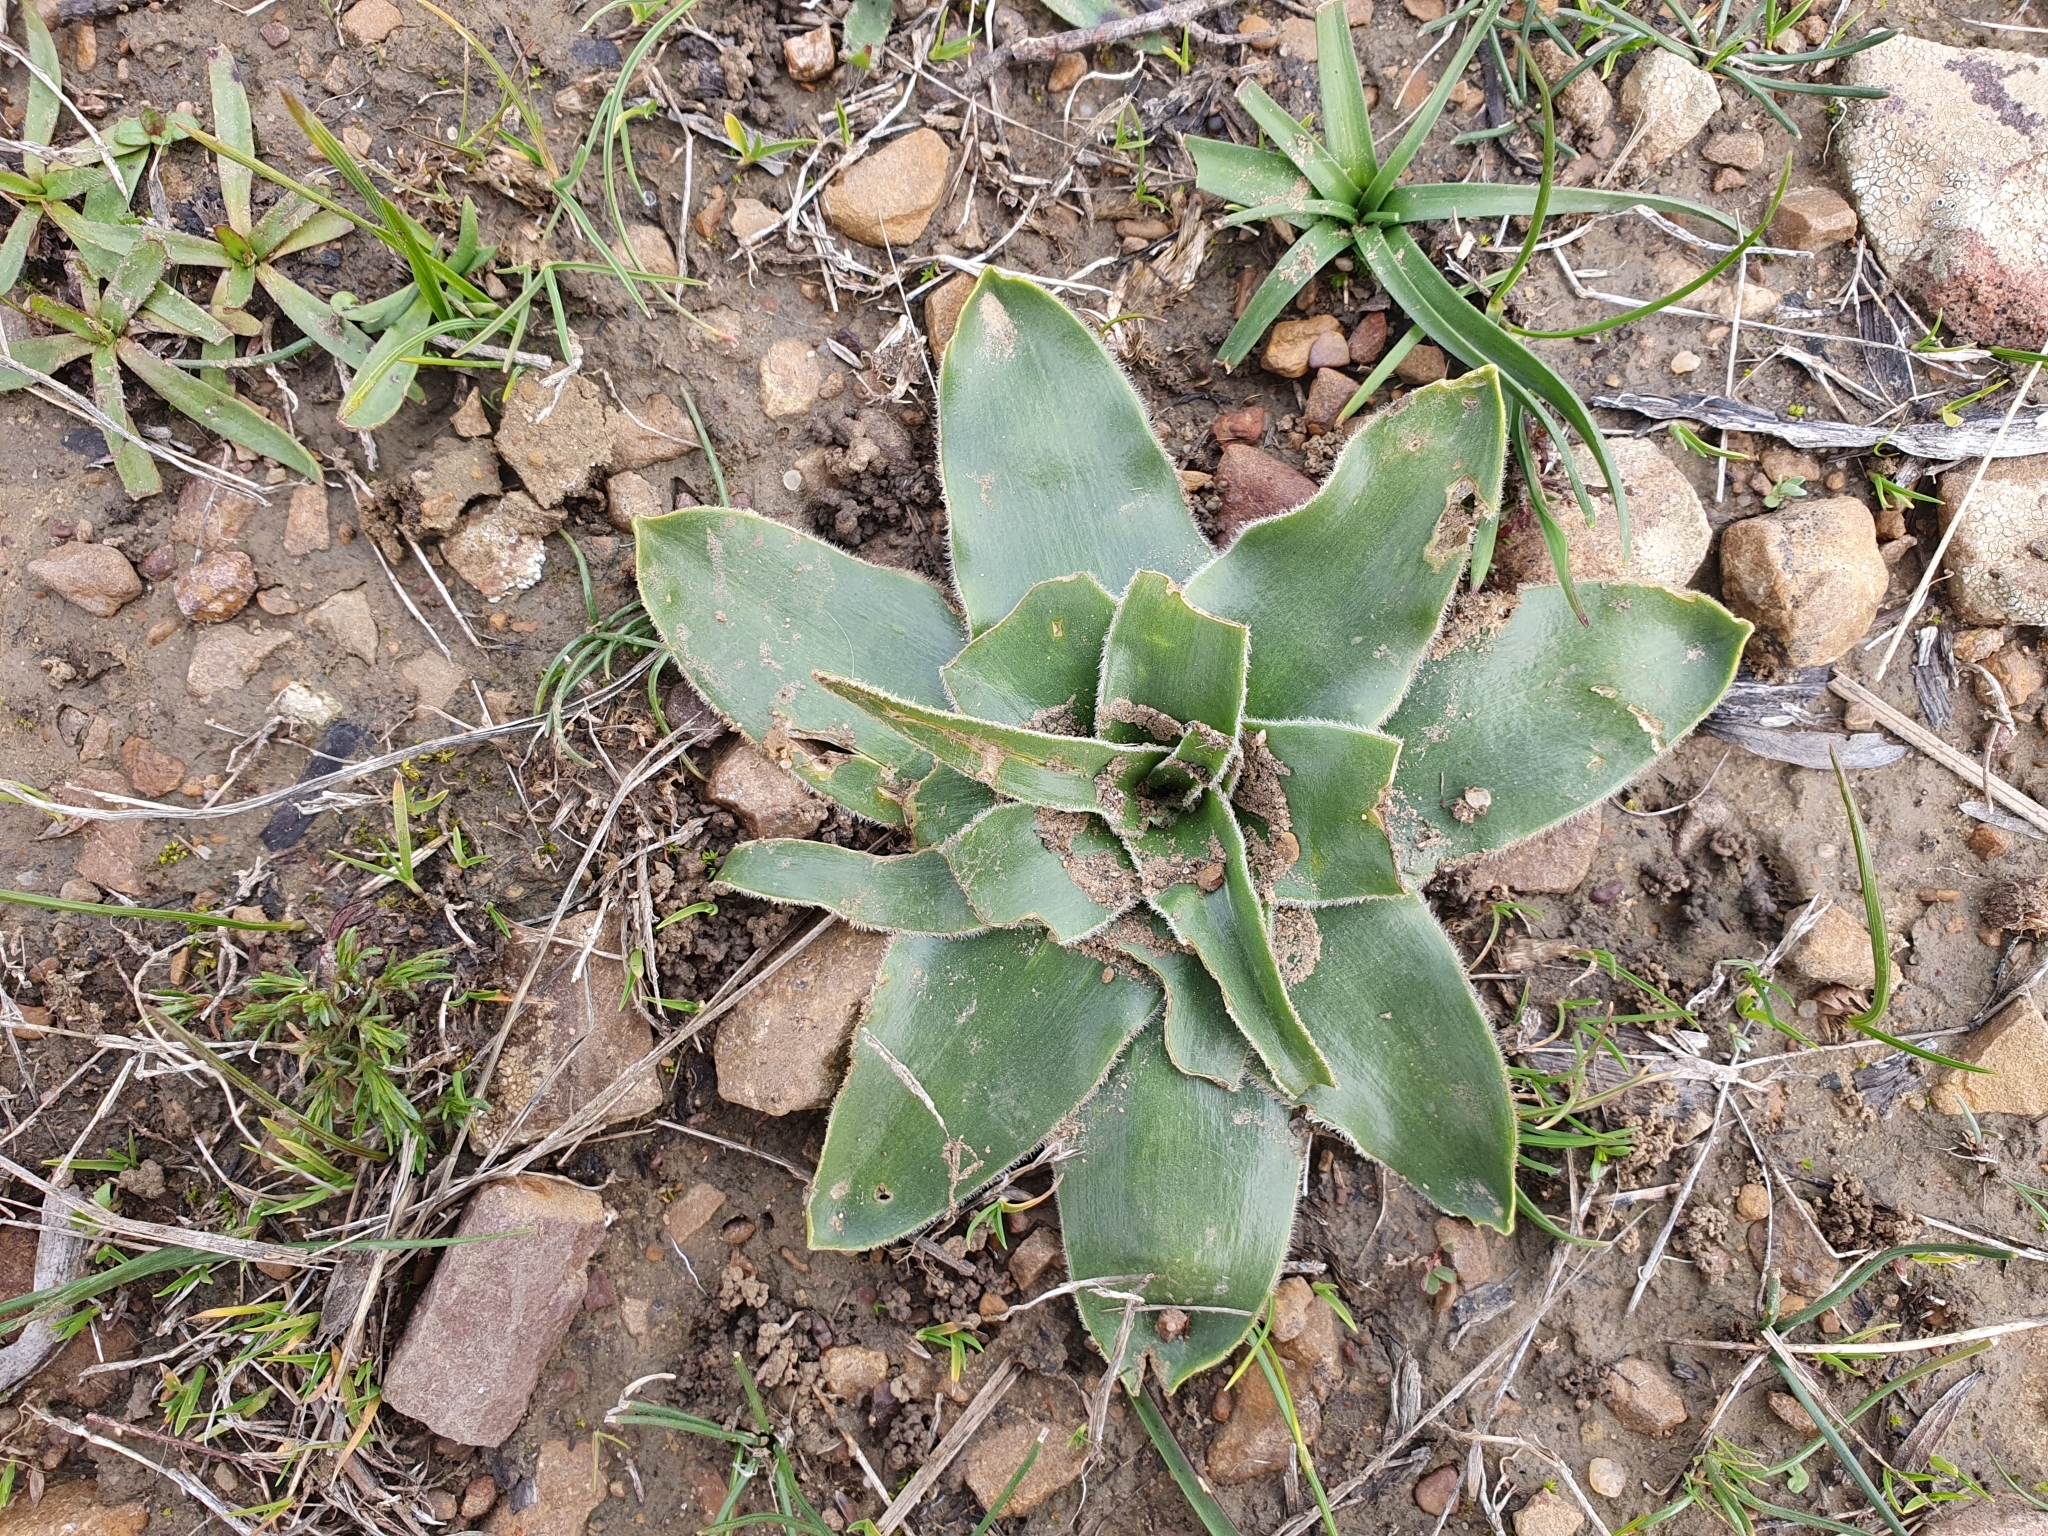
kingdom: Plantae
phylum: Tracheophyta
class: Liliopsida
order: Asparagales
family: Asparagaceae
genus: Scilla
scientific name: Scilla peruviana
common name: Portuguese squill
